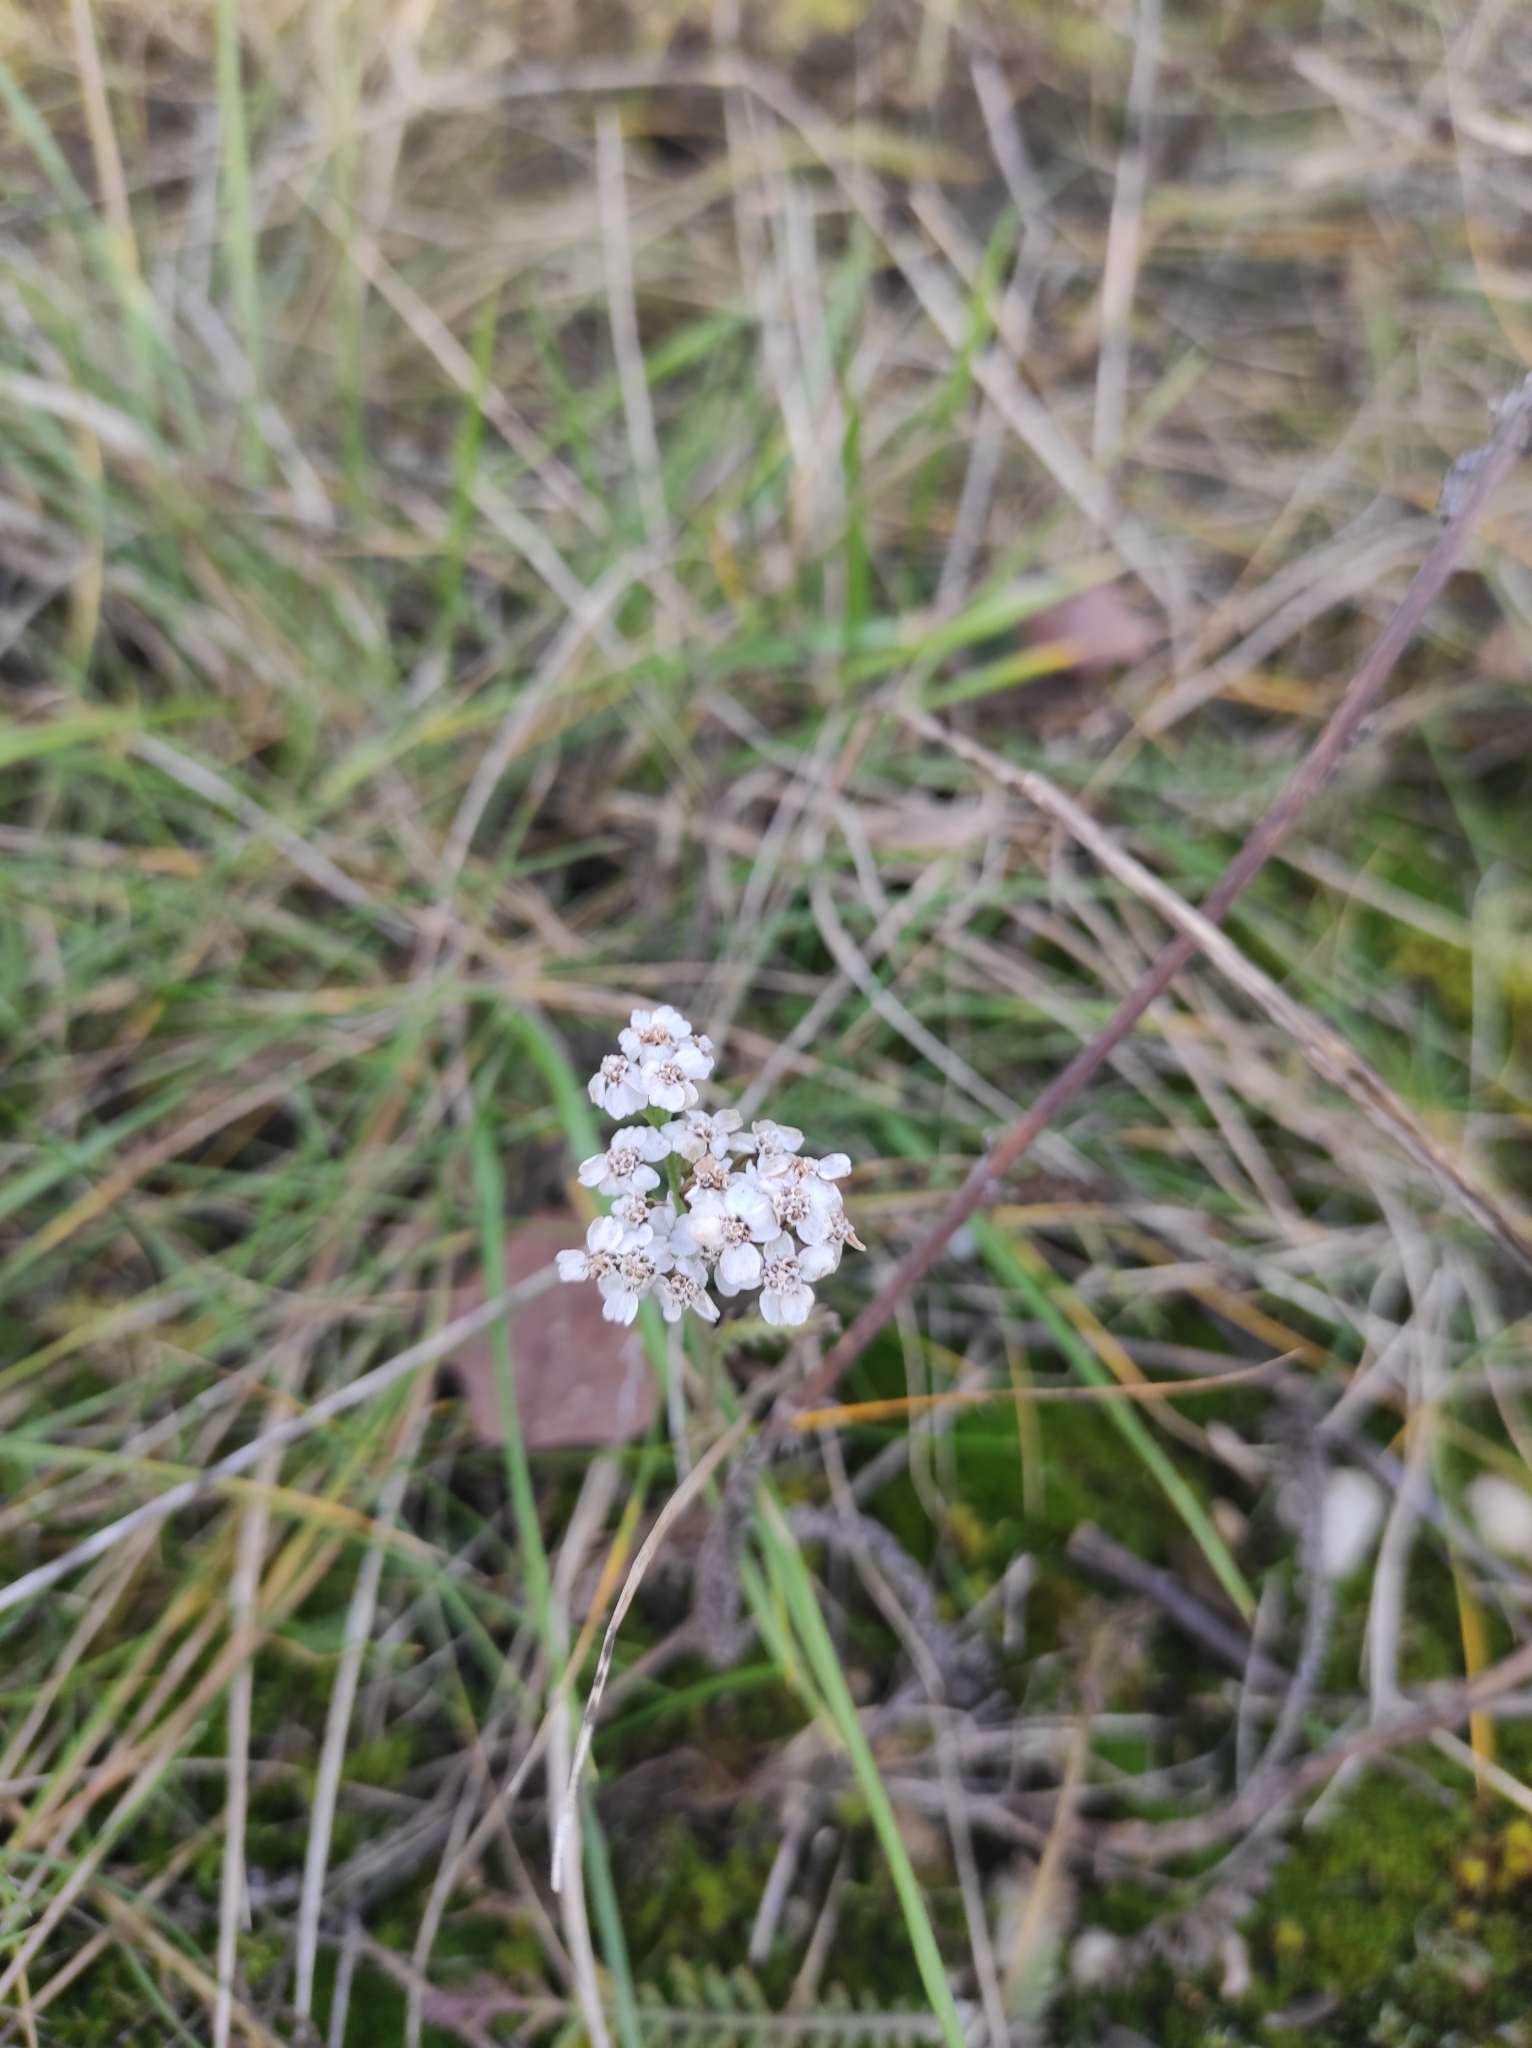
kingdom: Plantae
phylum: Tracheophyta
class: Magnoliopsida
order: Asterales
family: Asteraceae
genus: Achillea
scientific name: Achillea millefolium
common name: Yarrow
